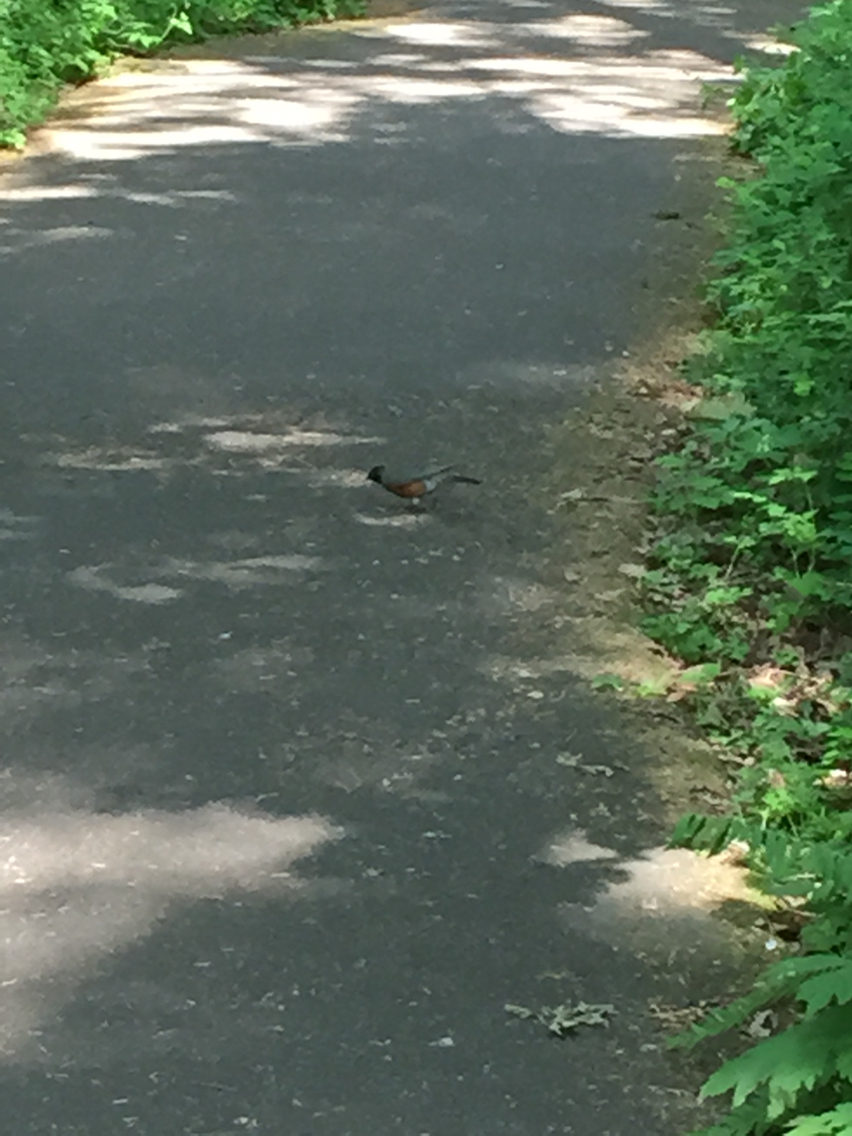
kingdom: Animalia
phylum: Chordata
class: Aves
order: Passeriformes
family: Turdidae
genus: Turdus
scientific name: Turdus migratorius
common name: American robin
